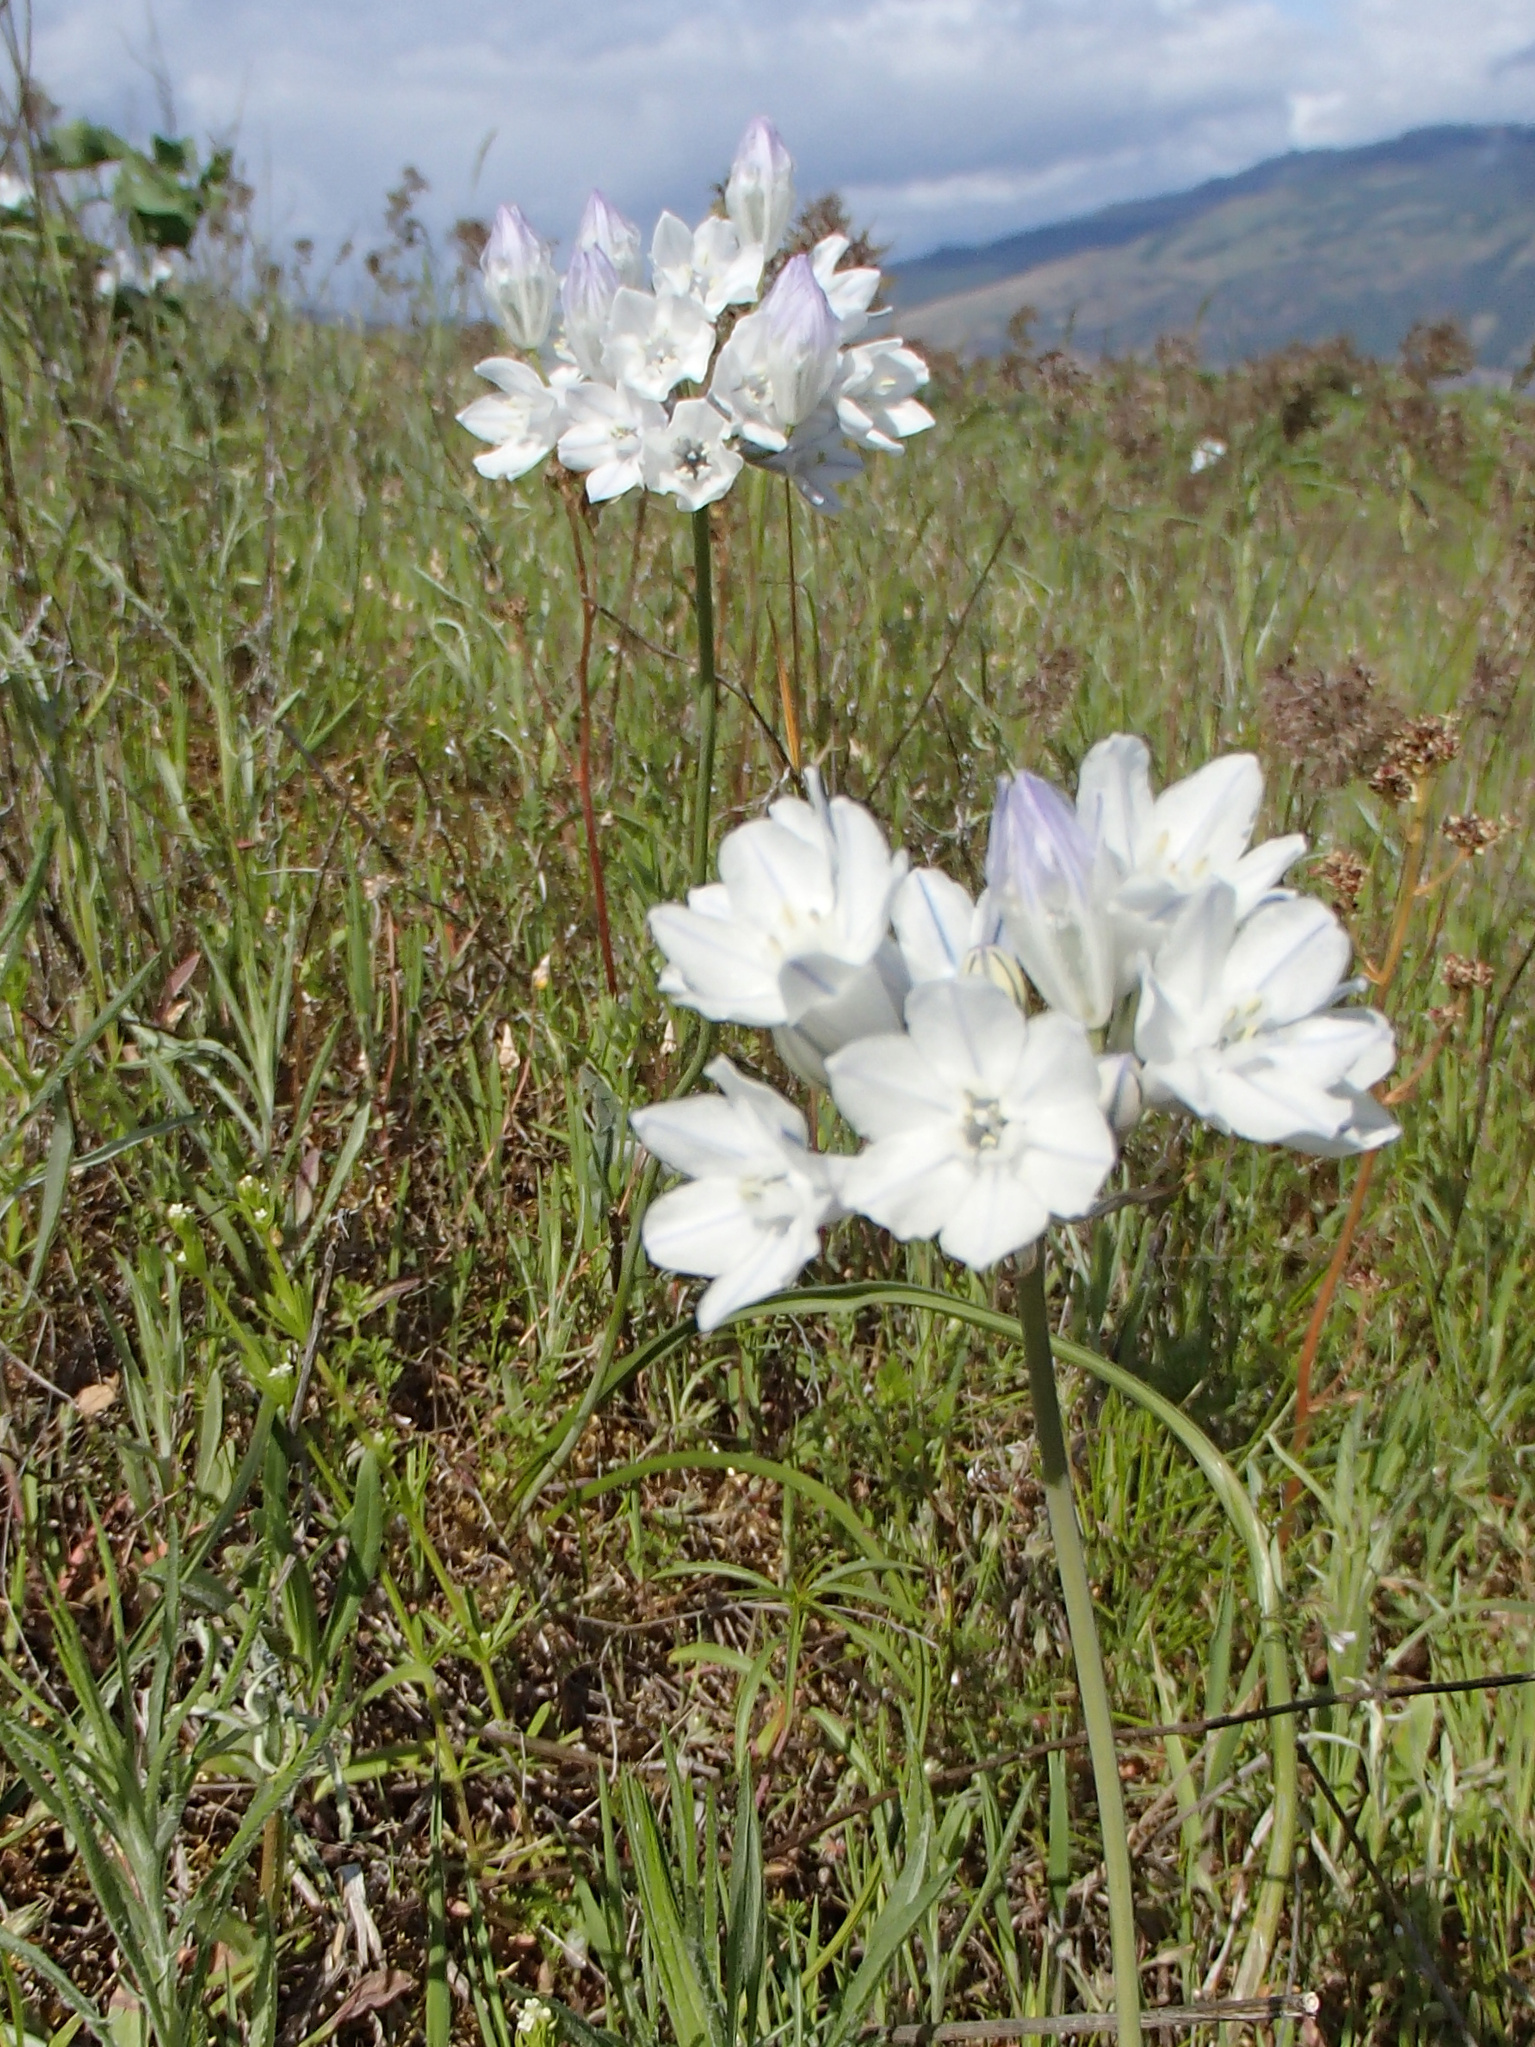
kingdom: Plantae
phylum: Tracheophyta
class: Liliopsida
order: Asparagales
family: Asparagaceae
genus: Triteleia
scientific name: Triteleia grandiflora
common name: Wild hyacinth
